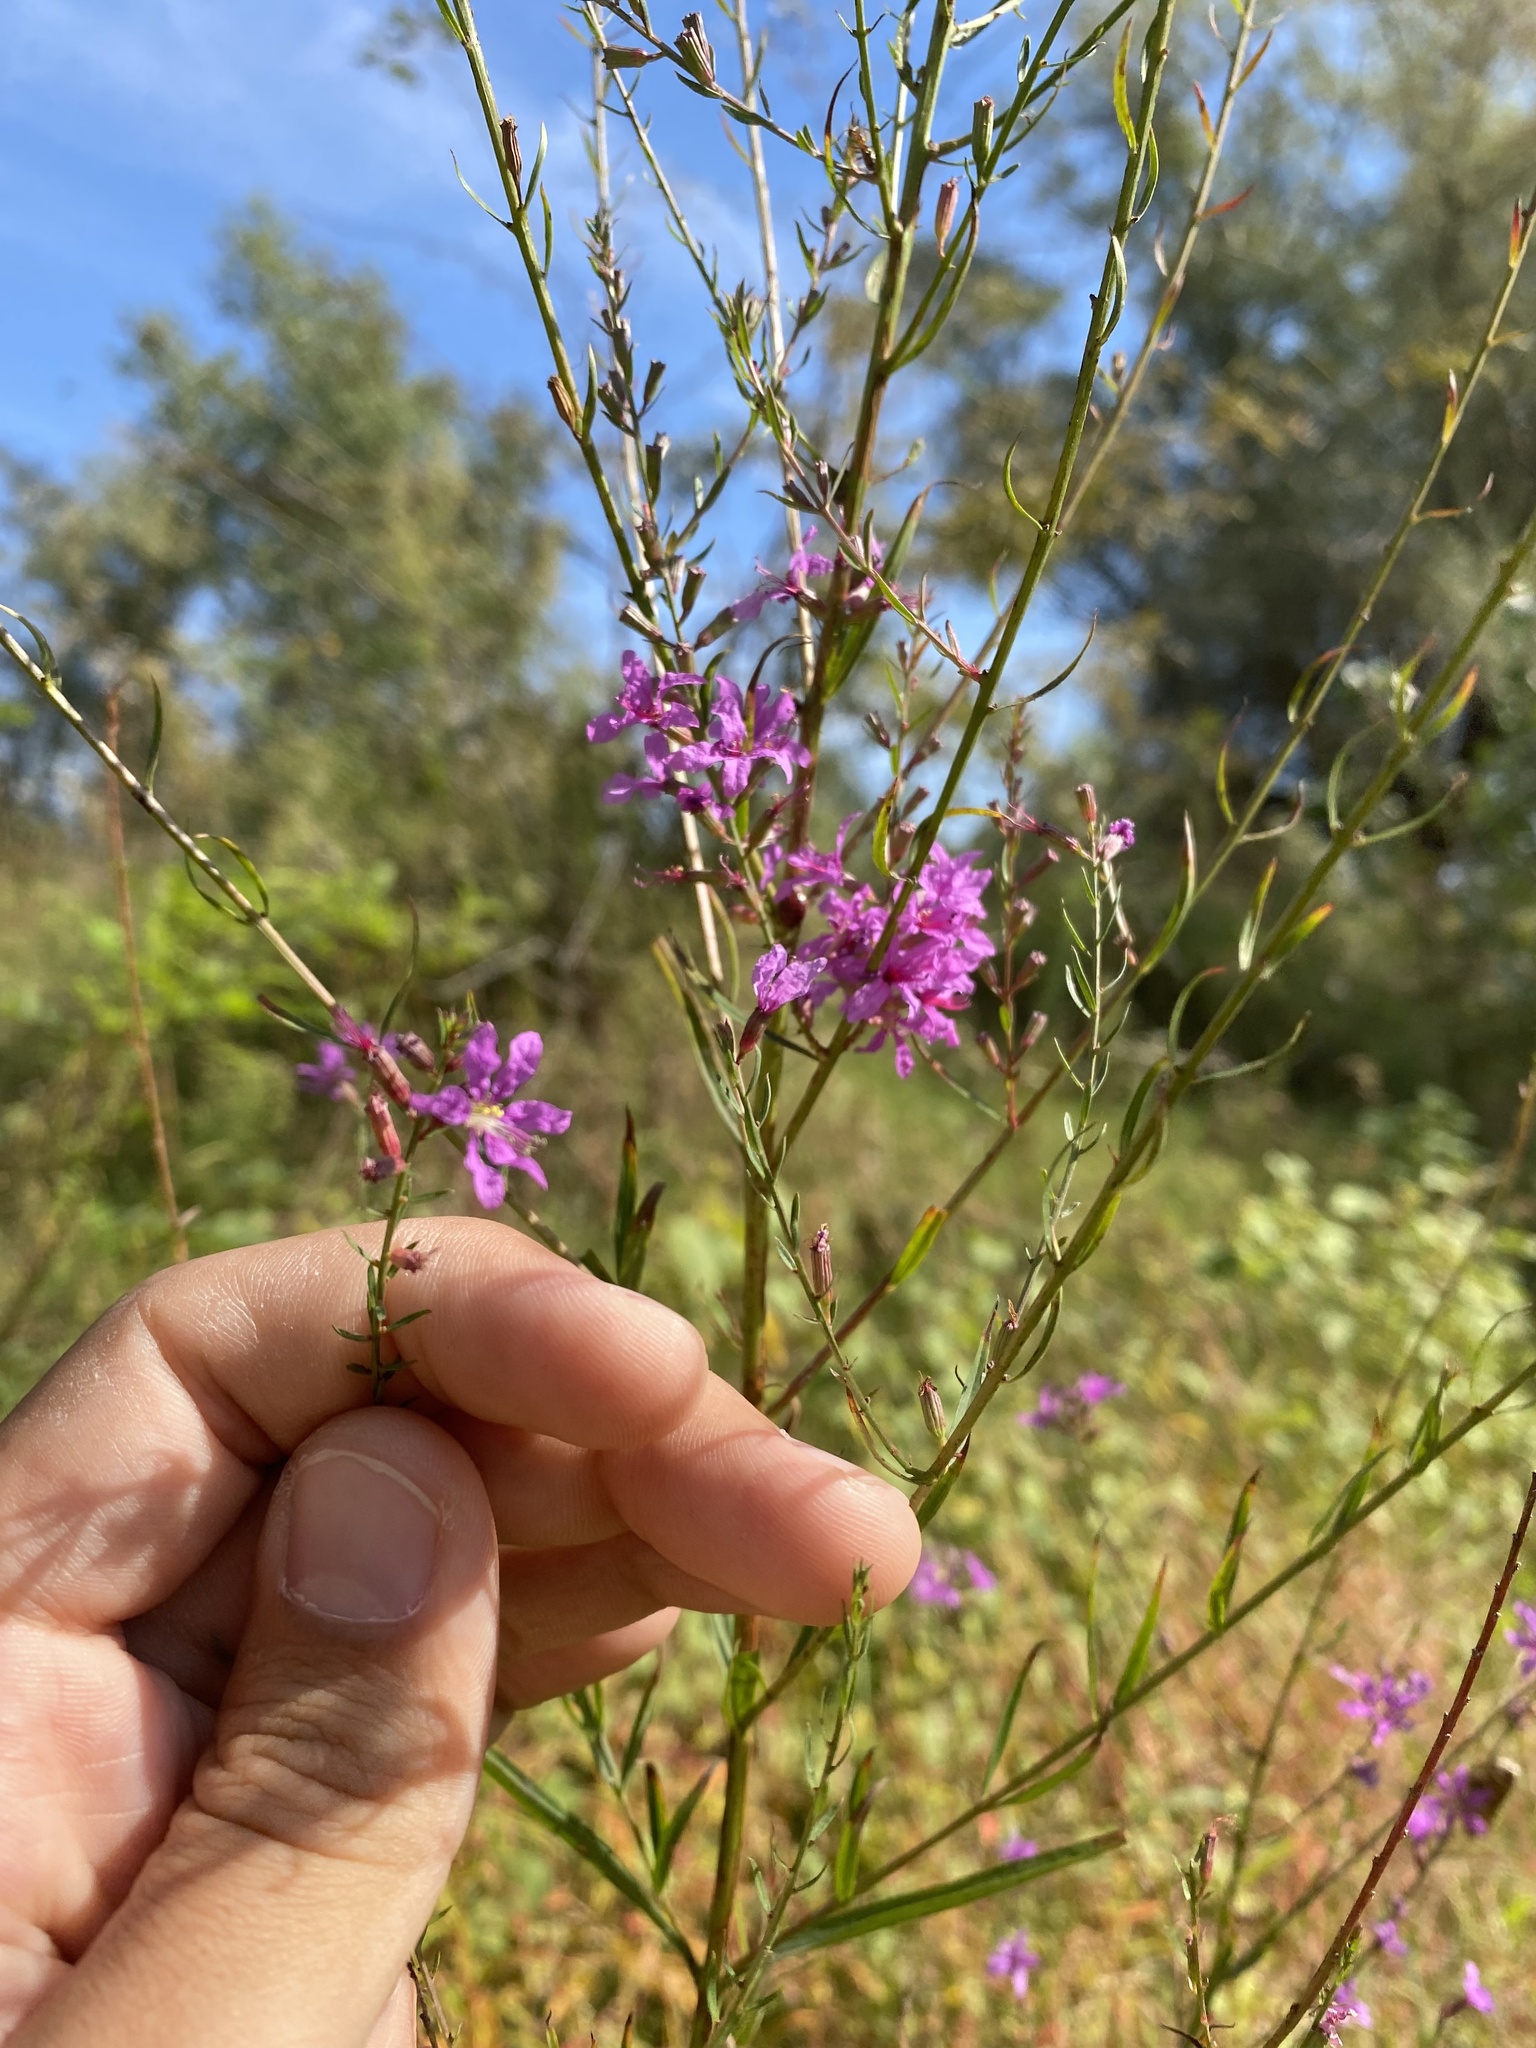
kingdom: Plantae
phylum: Tracheophyta
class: Magnoliopsida
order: Myrtales
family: Lythraceae
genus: Lythrum
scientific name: Lythrum virgatum
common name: European wand loosestrife
